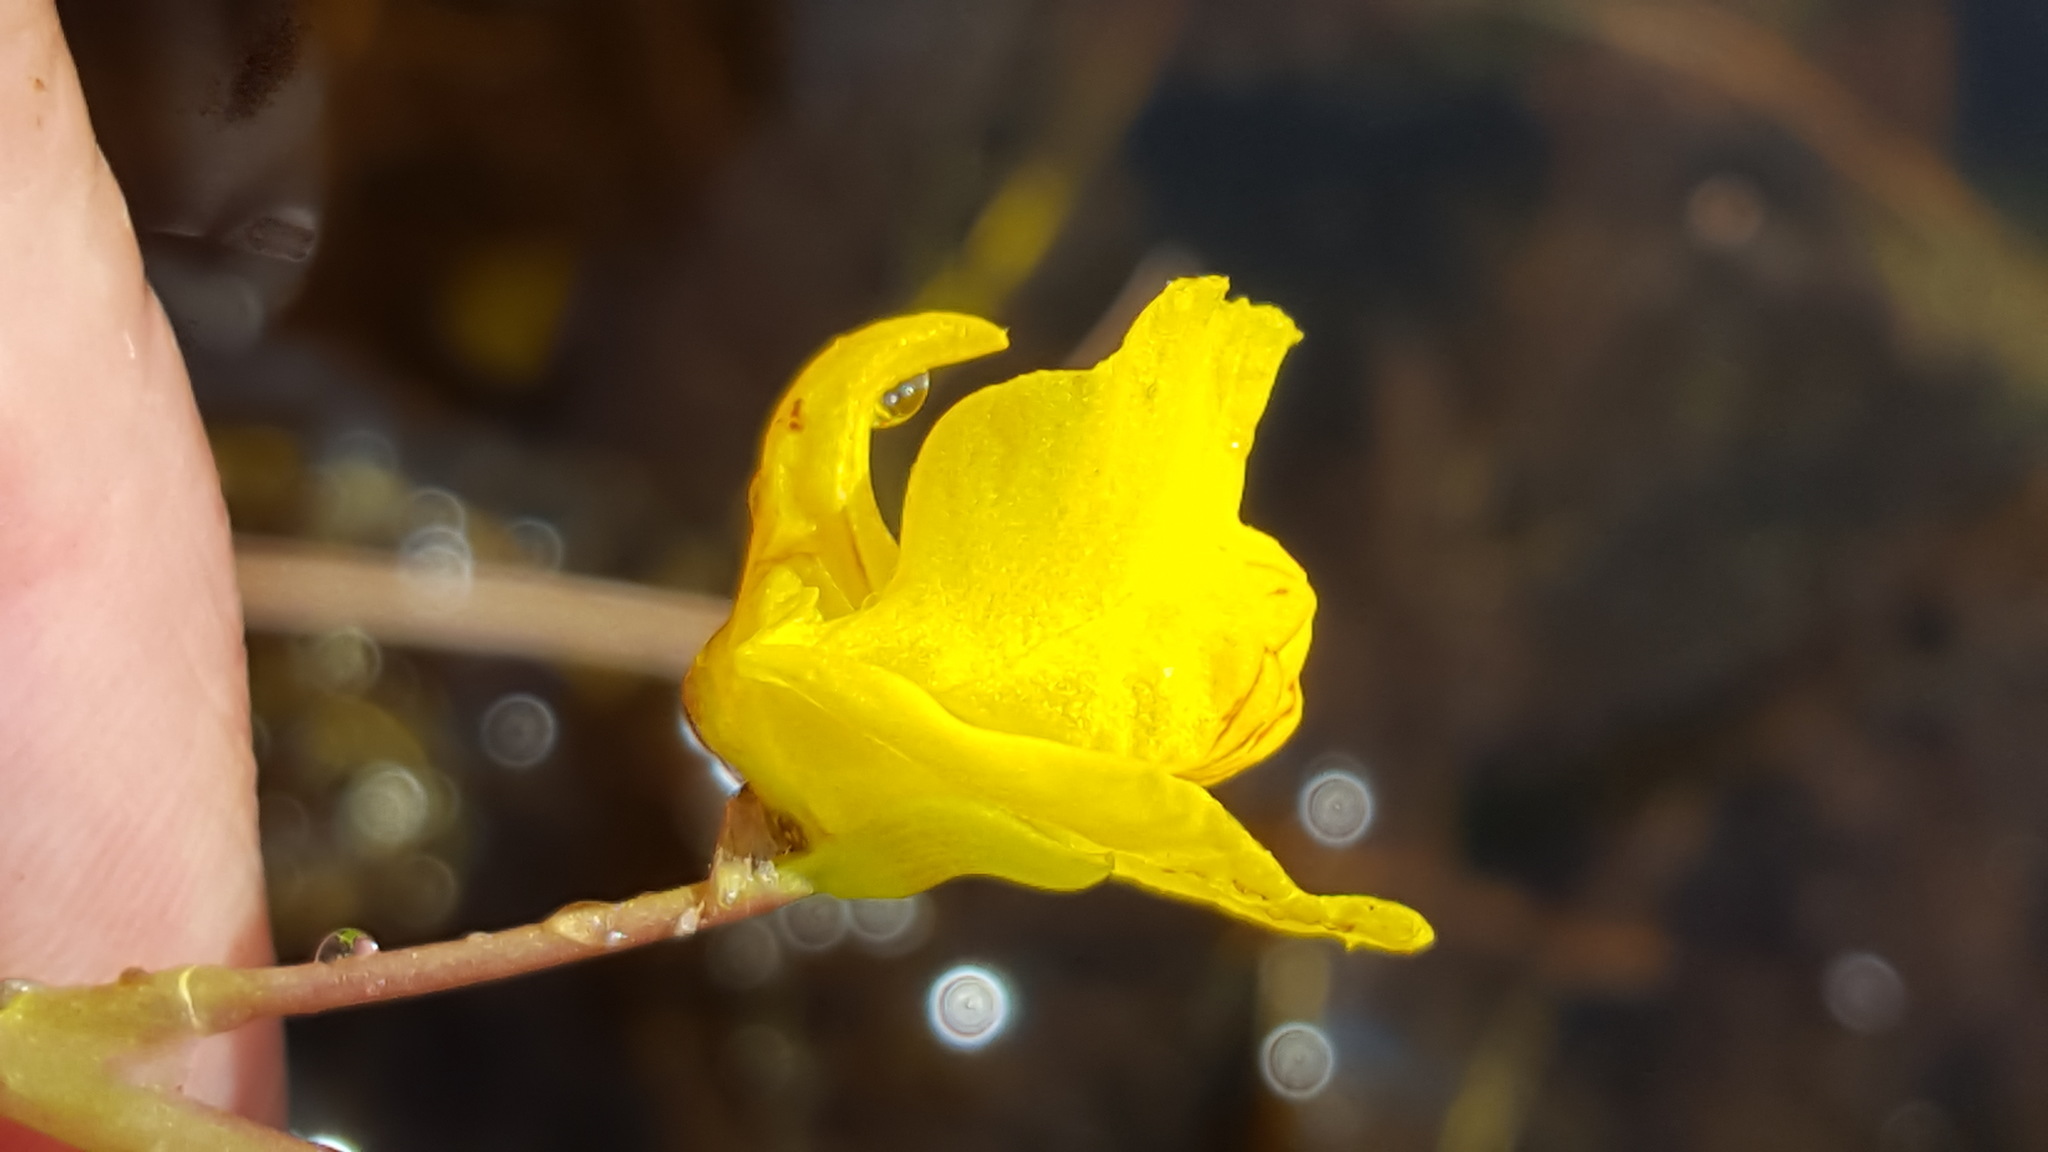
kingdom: Plantae
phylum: Tracheophyta
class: Magnoliopsida
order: Lamiales
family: Lentibulariaceae
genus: Utricularia
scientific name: Utricularia macrorhiza
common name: Common bladderwort
